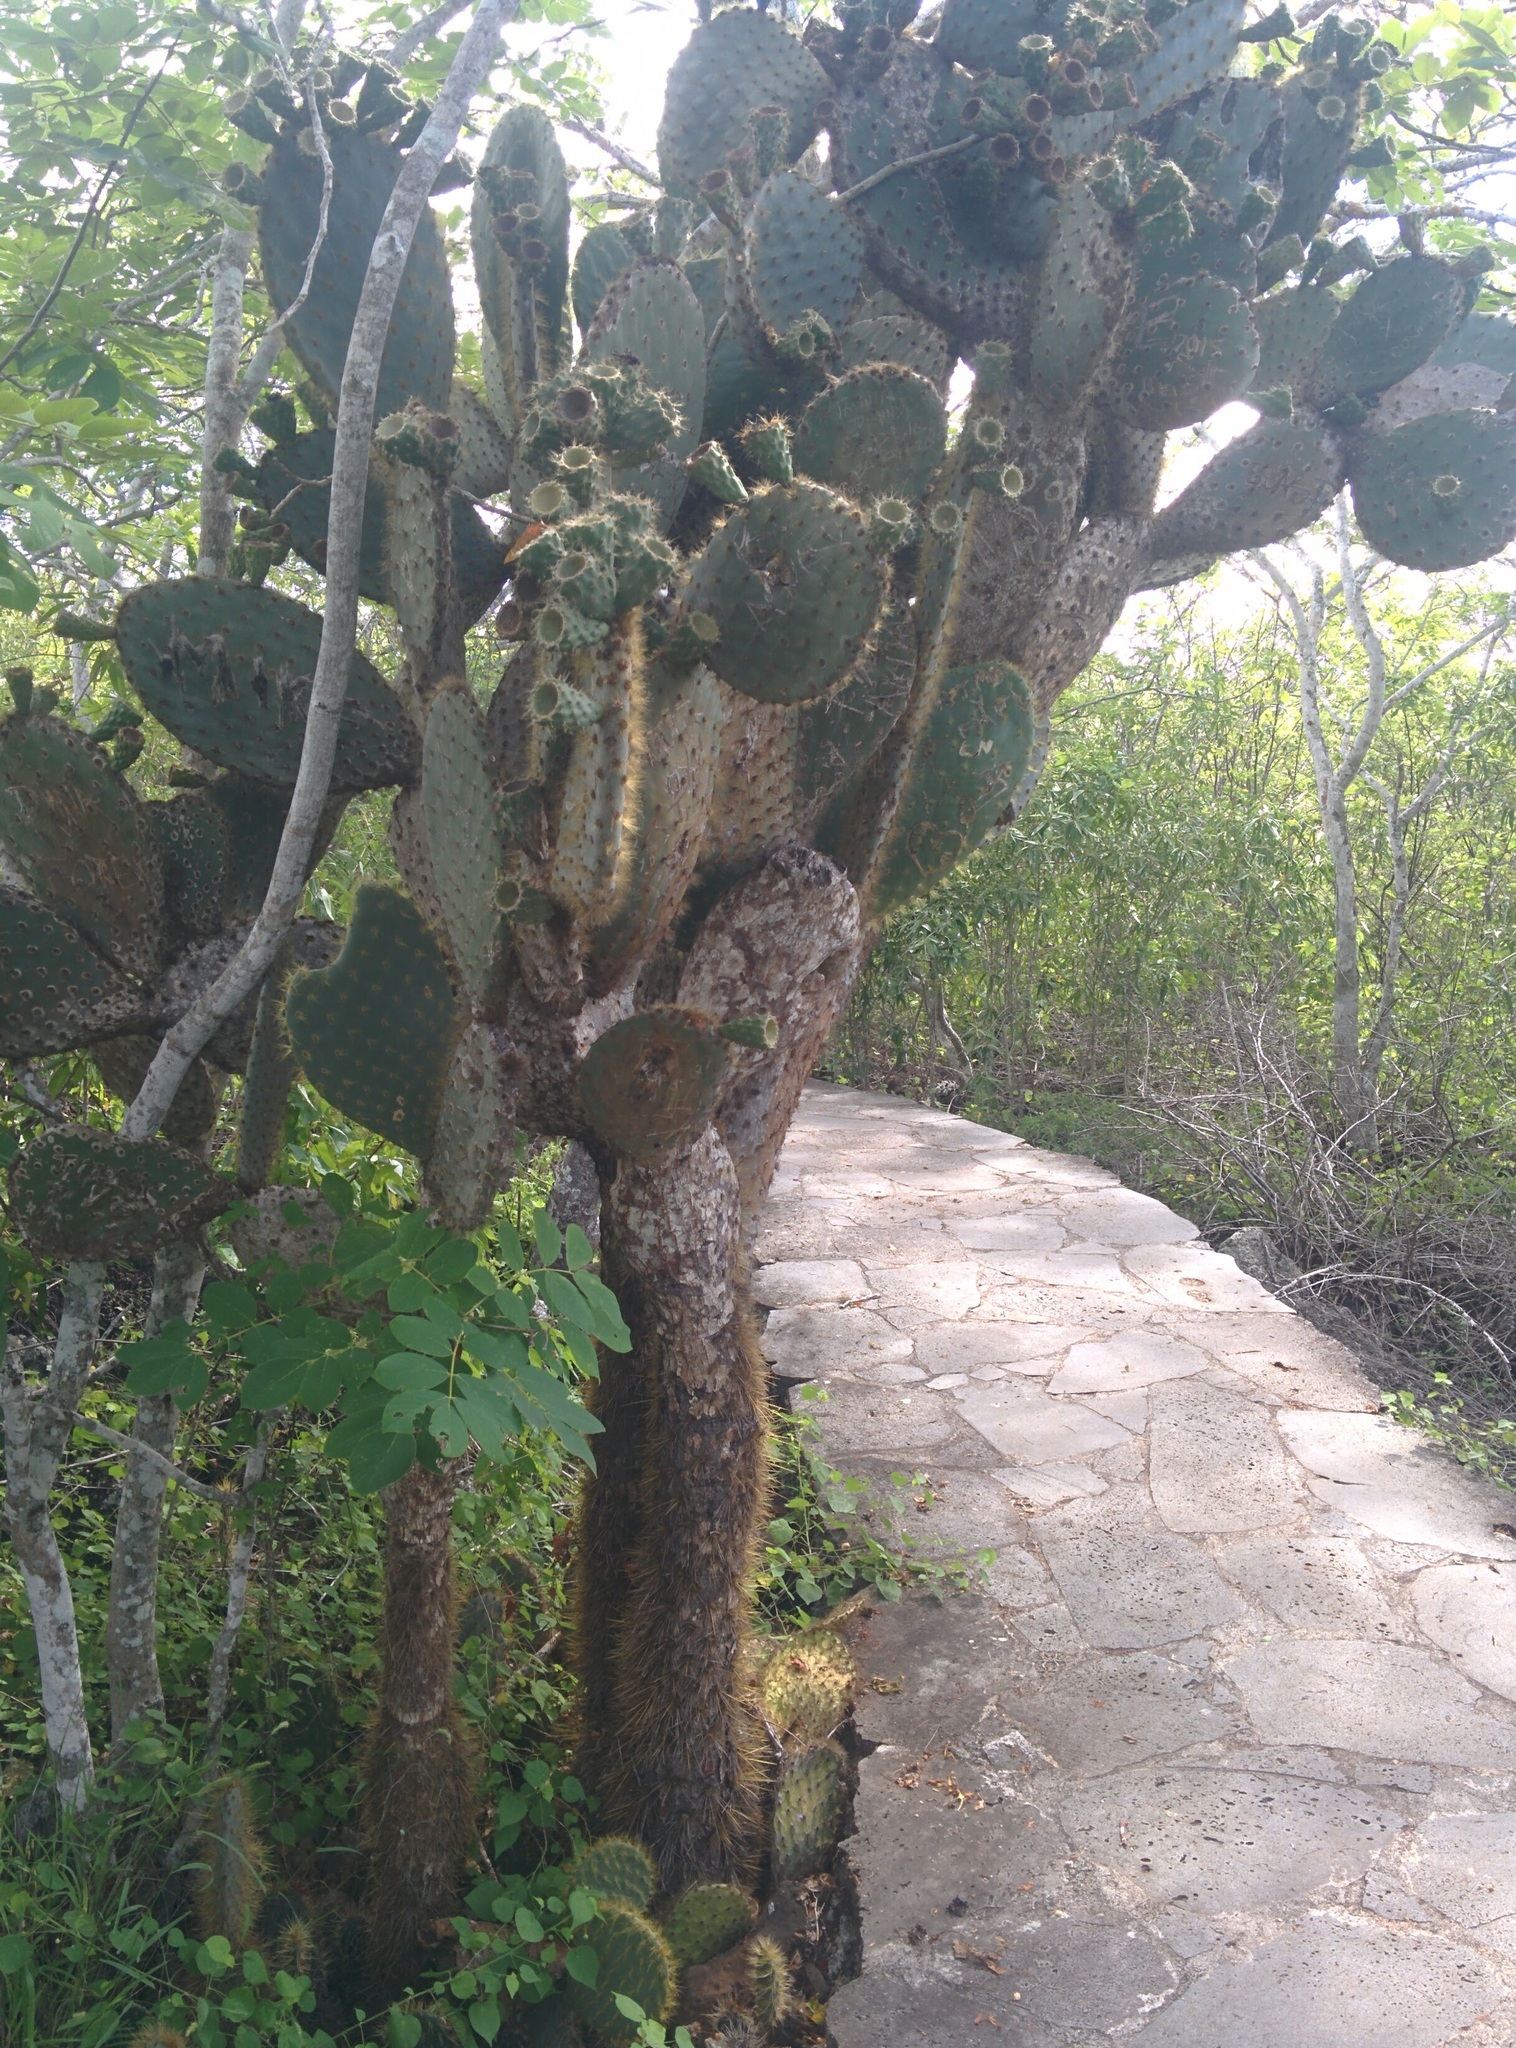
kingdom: Plantae
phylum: Tracheophyta
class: Magnoliopsida
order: Caryophyllales
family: Cactaceae
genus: Opuntia
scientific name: Opuntia galapageia
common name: Galápagos prickly pear
